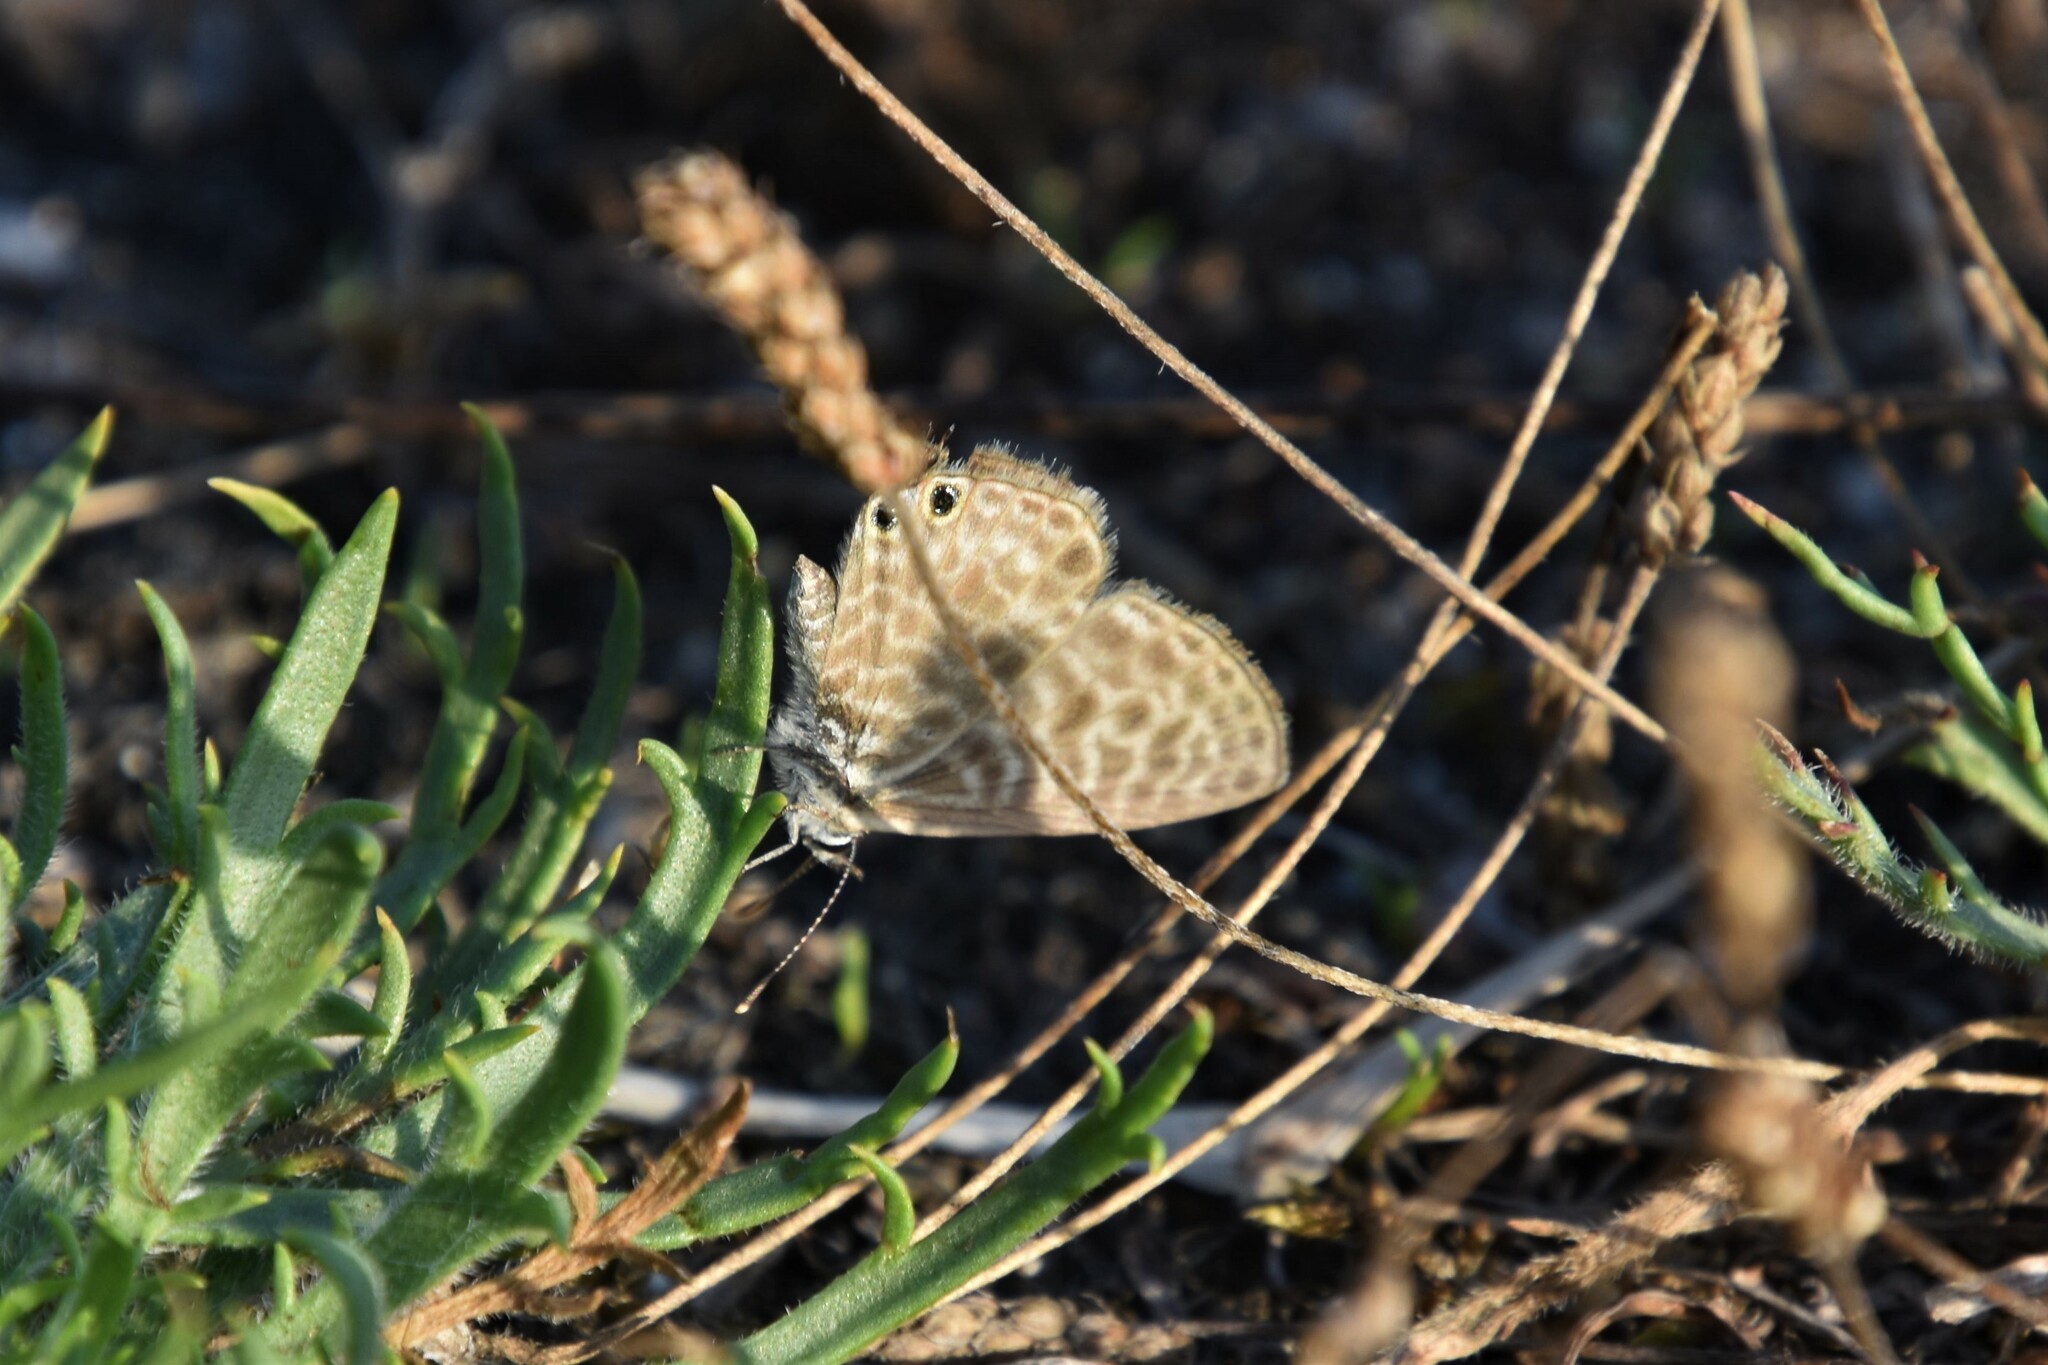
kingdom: Animalia
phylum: Arthropoda
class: Insecta
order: Lepidoptera
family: Lycaenidae
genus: Leptotes
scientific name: Leptotes pirithous
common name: Lang's short-tailed blue
